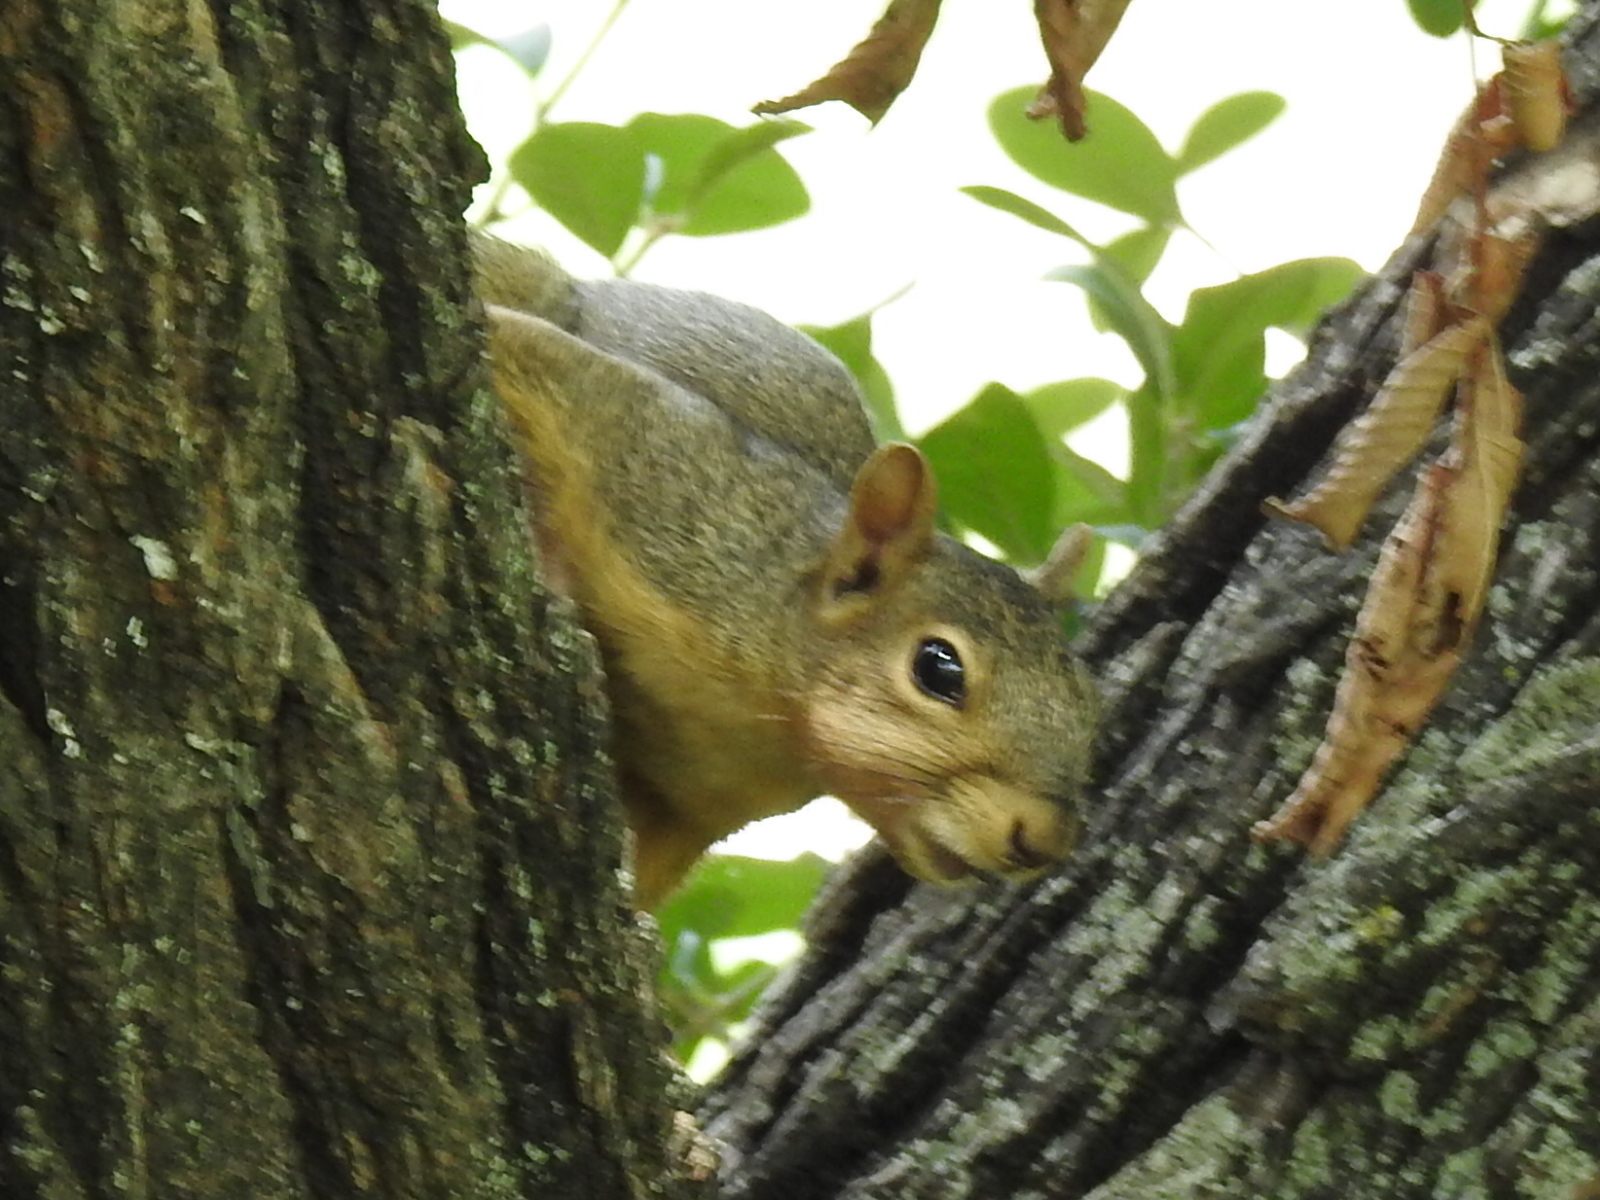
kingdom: Animalia
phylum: Chordata
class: Mammalia
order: Rodentia
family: Sciuridae
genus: Sciurus
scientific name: Sciurus niger
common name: Fox squirrel
